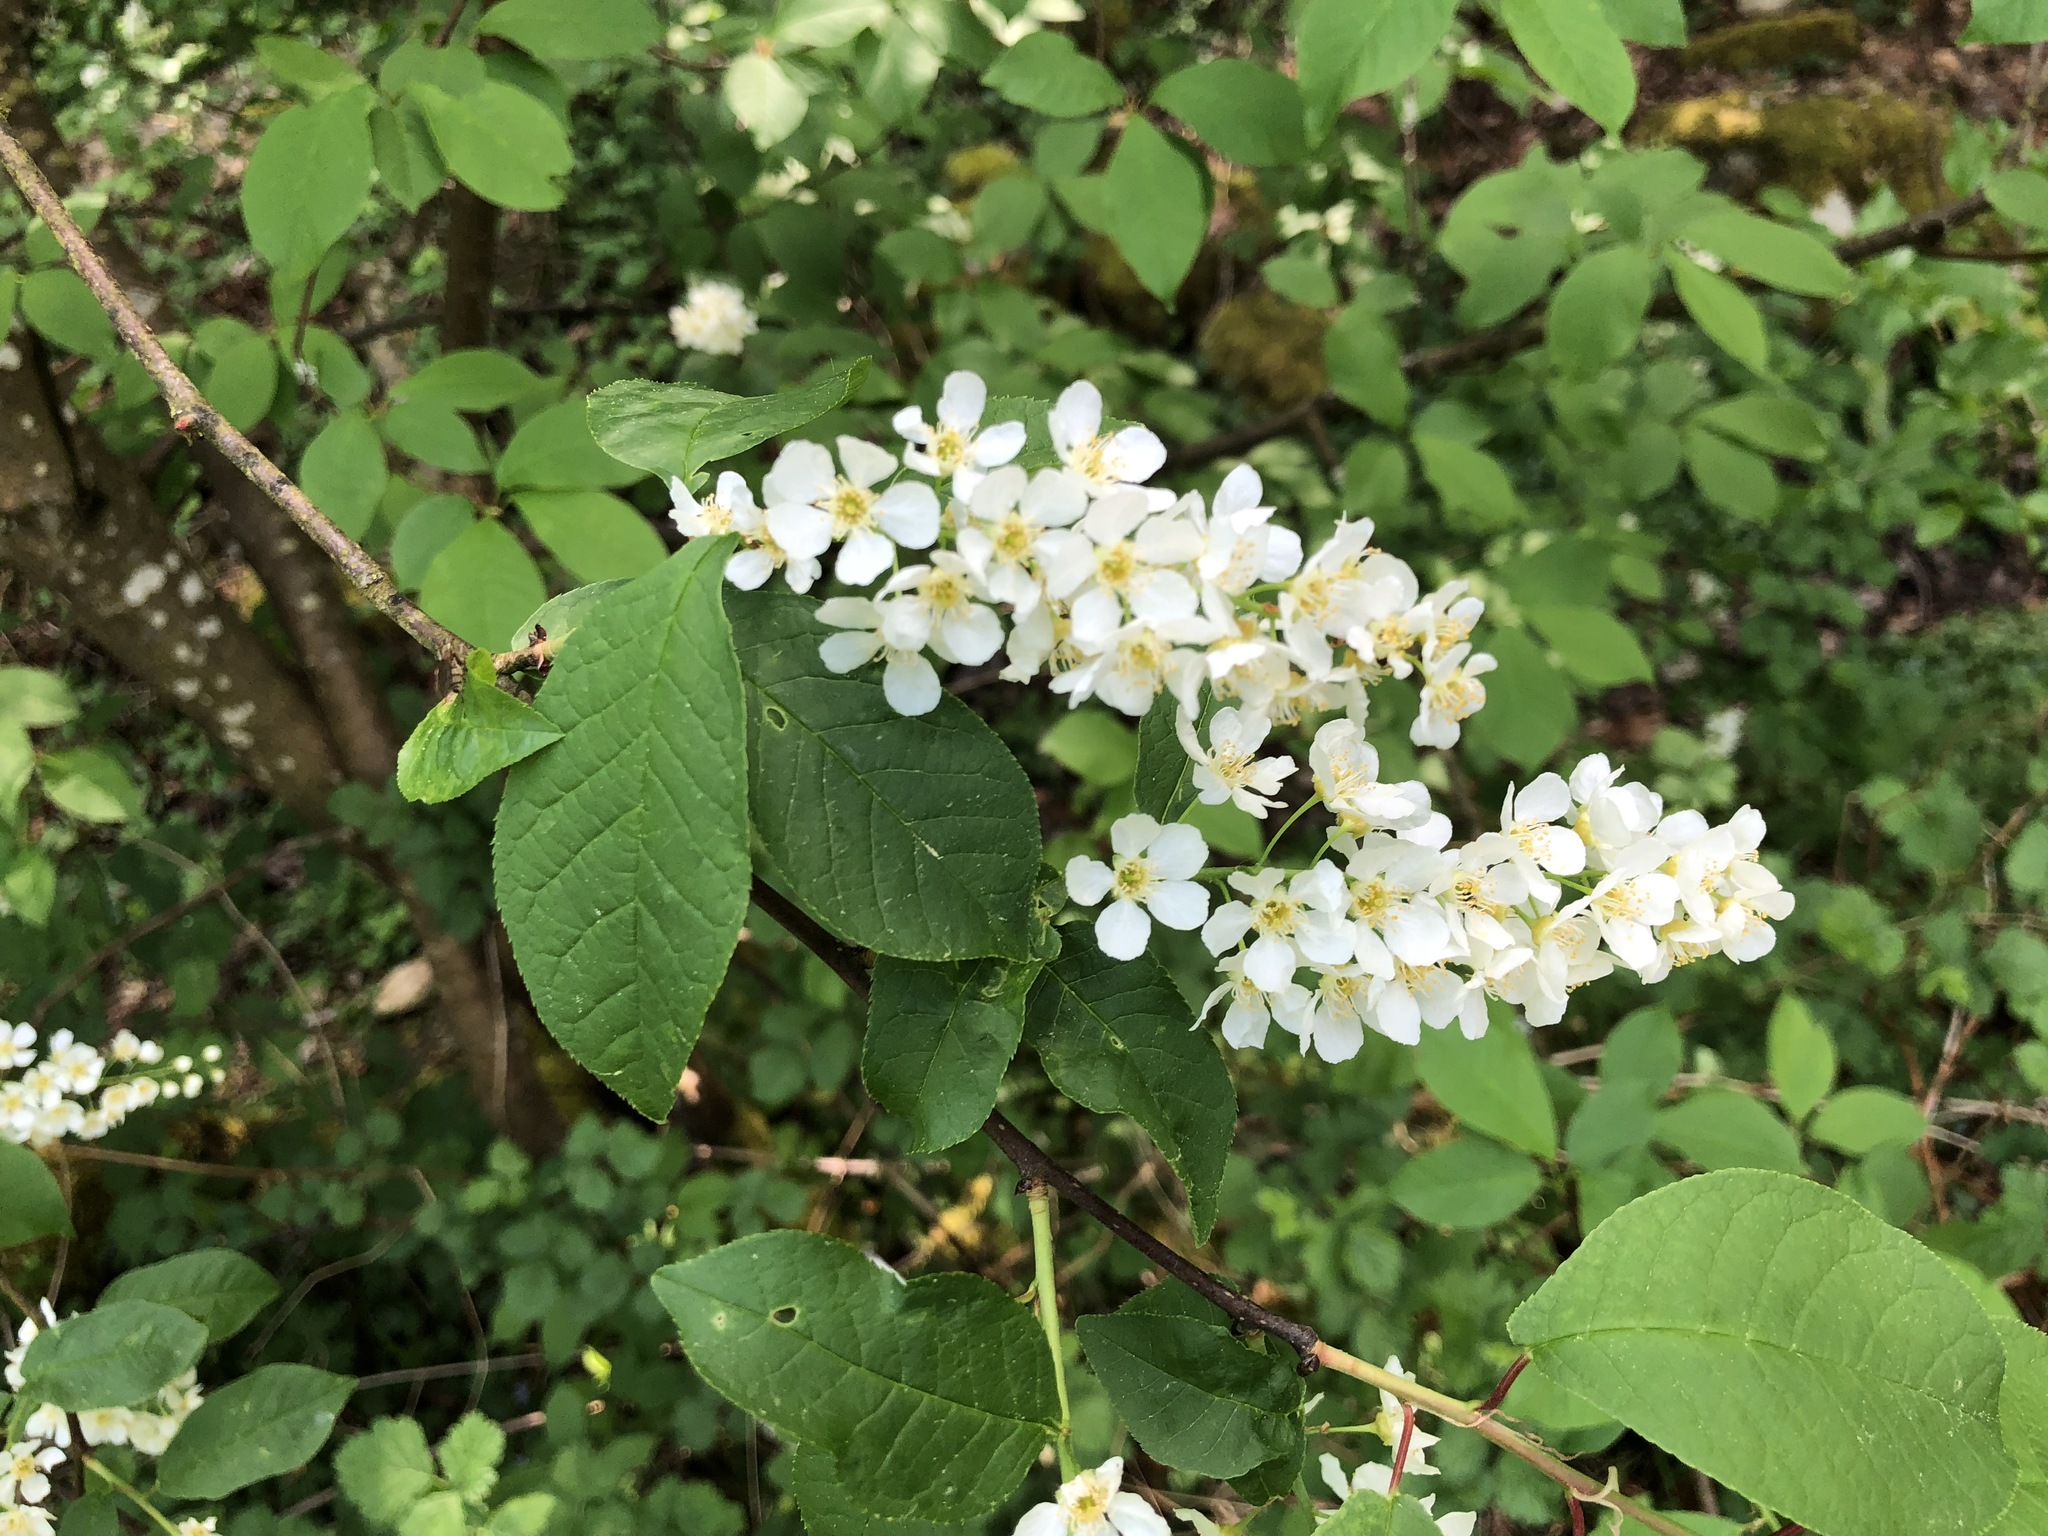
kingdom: Plantae
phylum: Tracheophyta
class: Magnoliopsida
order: Rosales
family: Rosaceae
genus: Prunus
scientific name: Prunus padus
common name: Bird cherry
